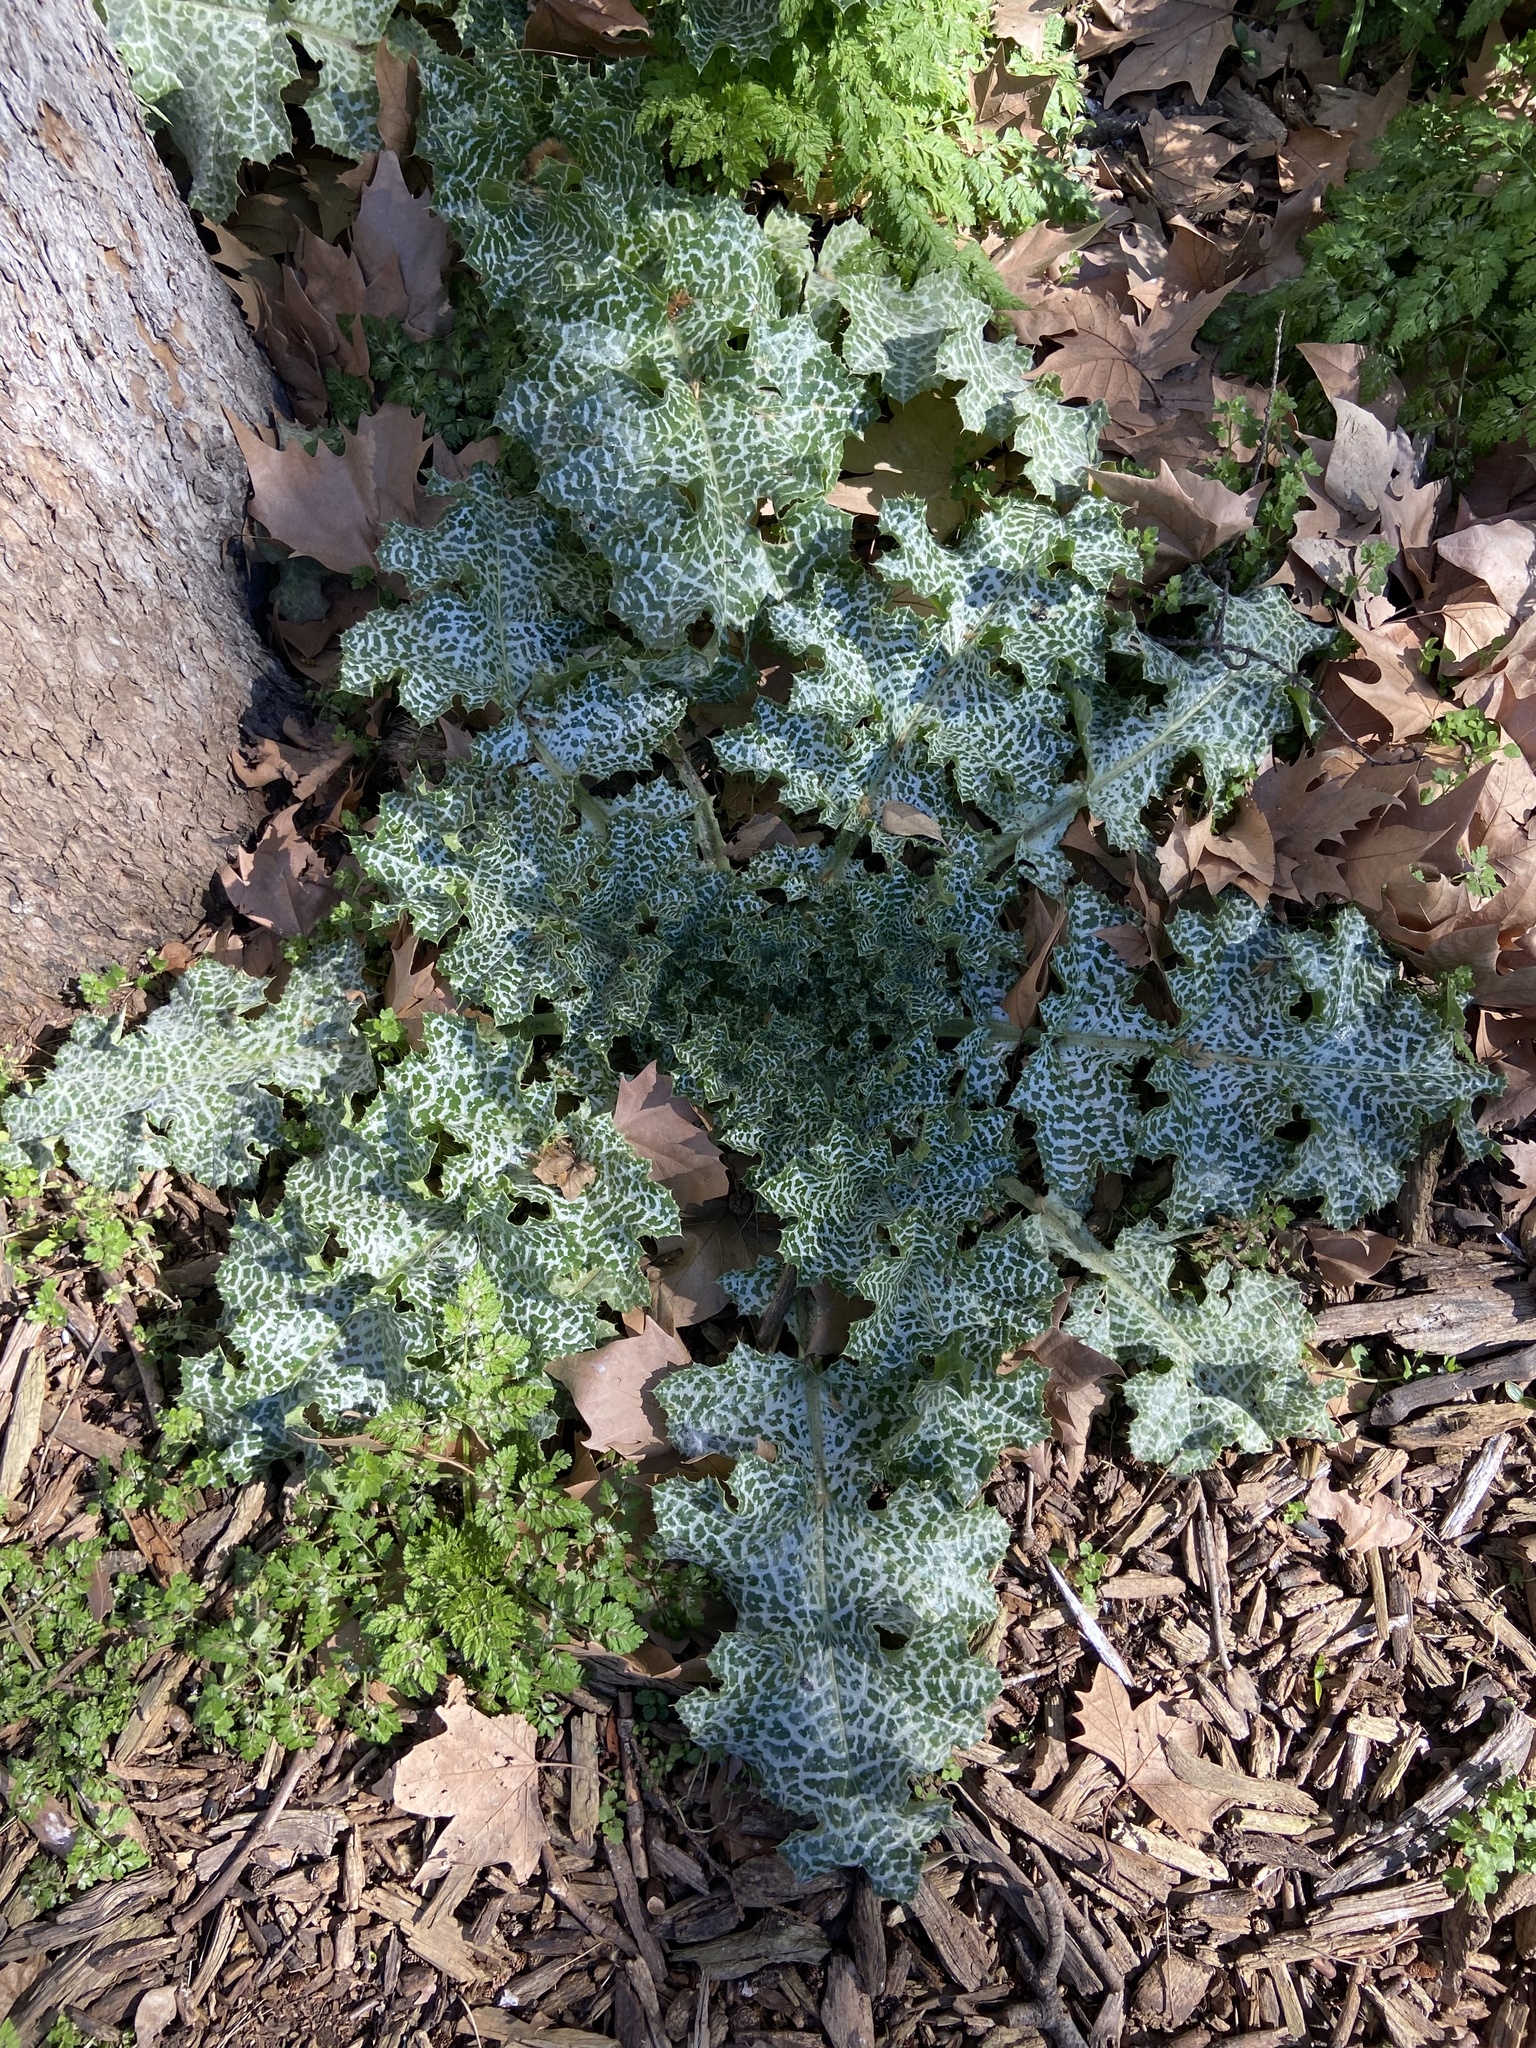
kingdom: Plantae
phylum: Tracheophyta
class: Magnoliopsida
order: Asterales
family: Asteraceae
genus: Silybum
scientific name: Silybum marianum
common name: Milk thistle
